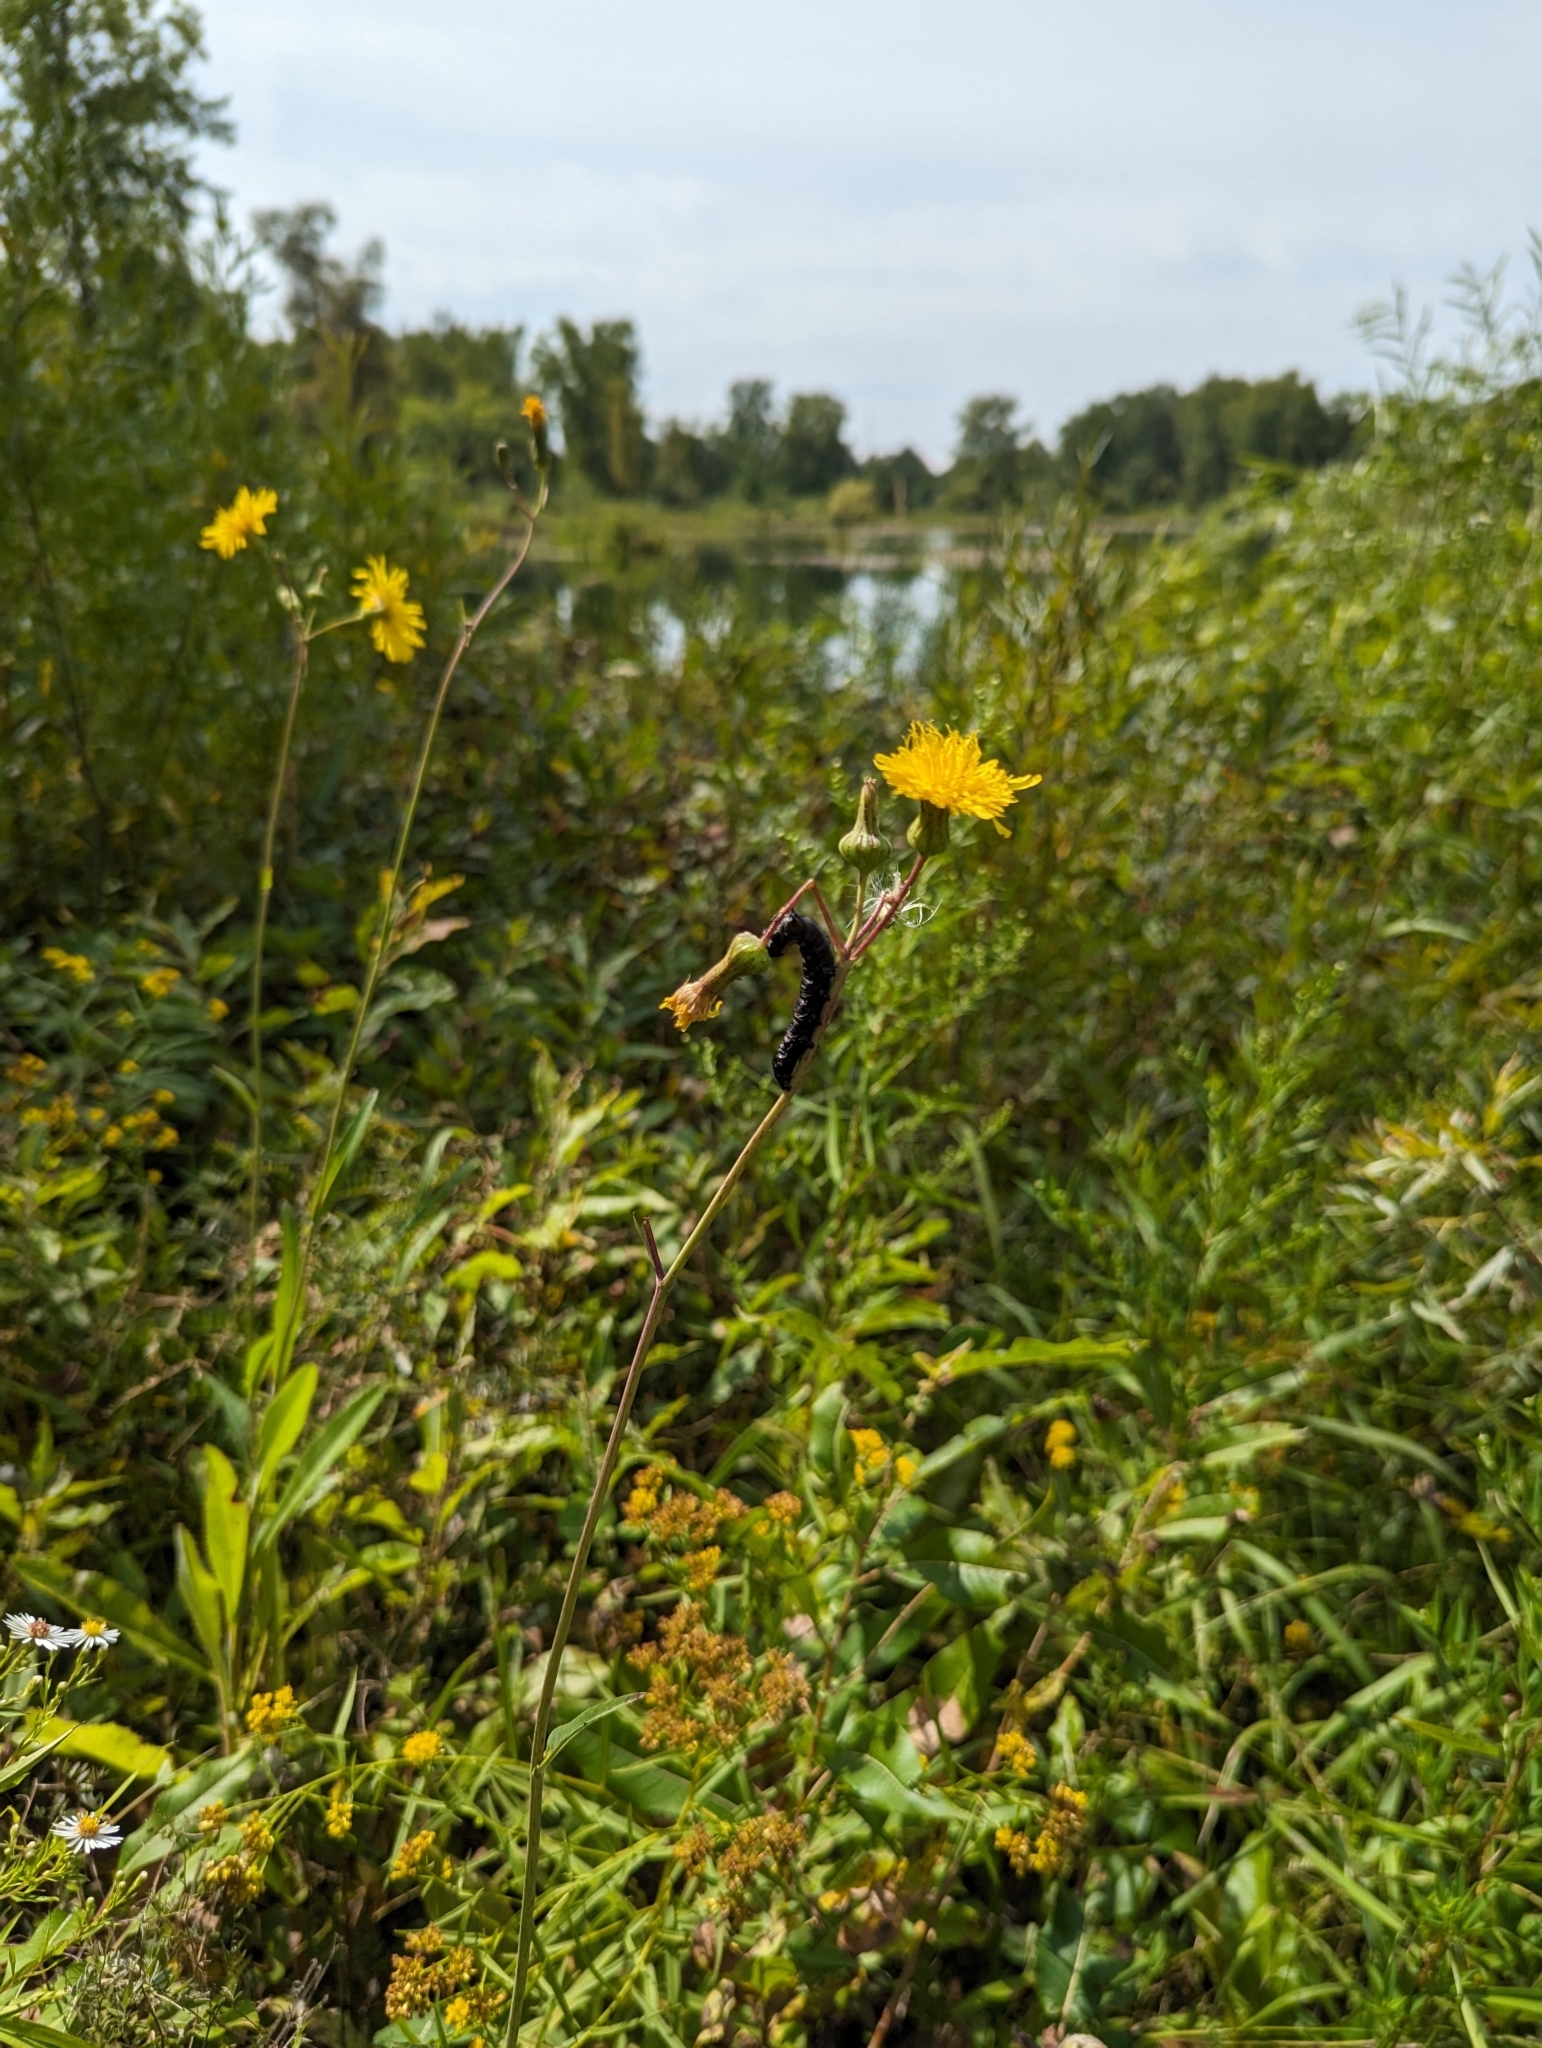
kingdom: Animalia
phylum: Arthropoda
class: Insecta
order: Lepidoptera
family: Noctuidae
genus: Cucullia
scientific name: Cucullia intermedia
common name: Goldenrod cutworm
